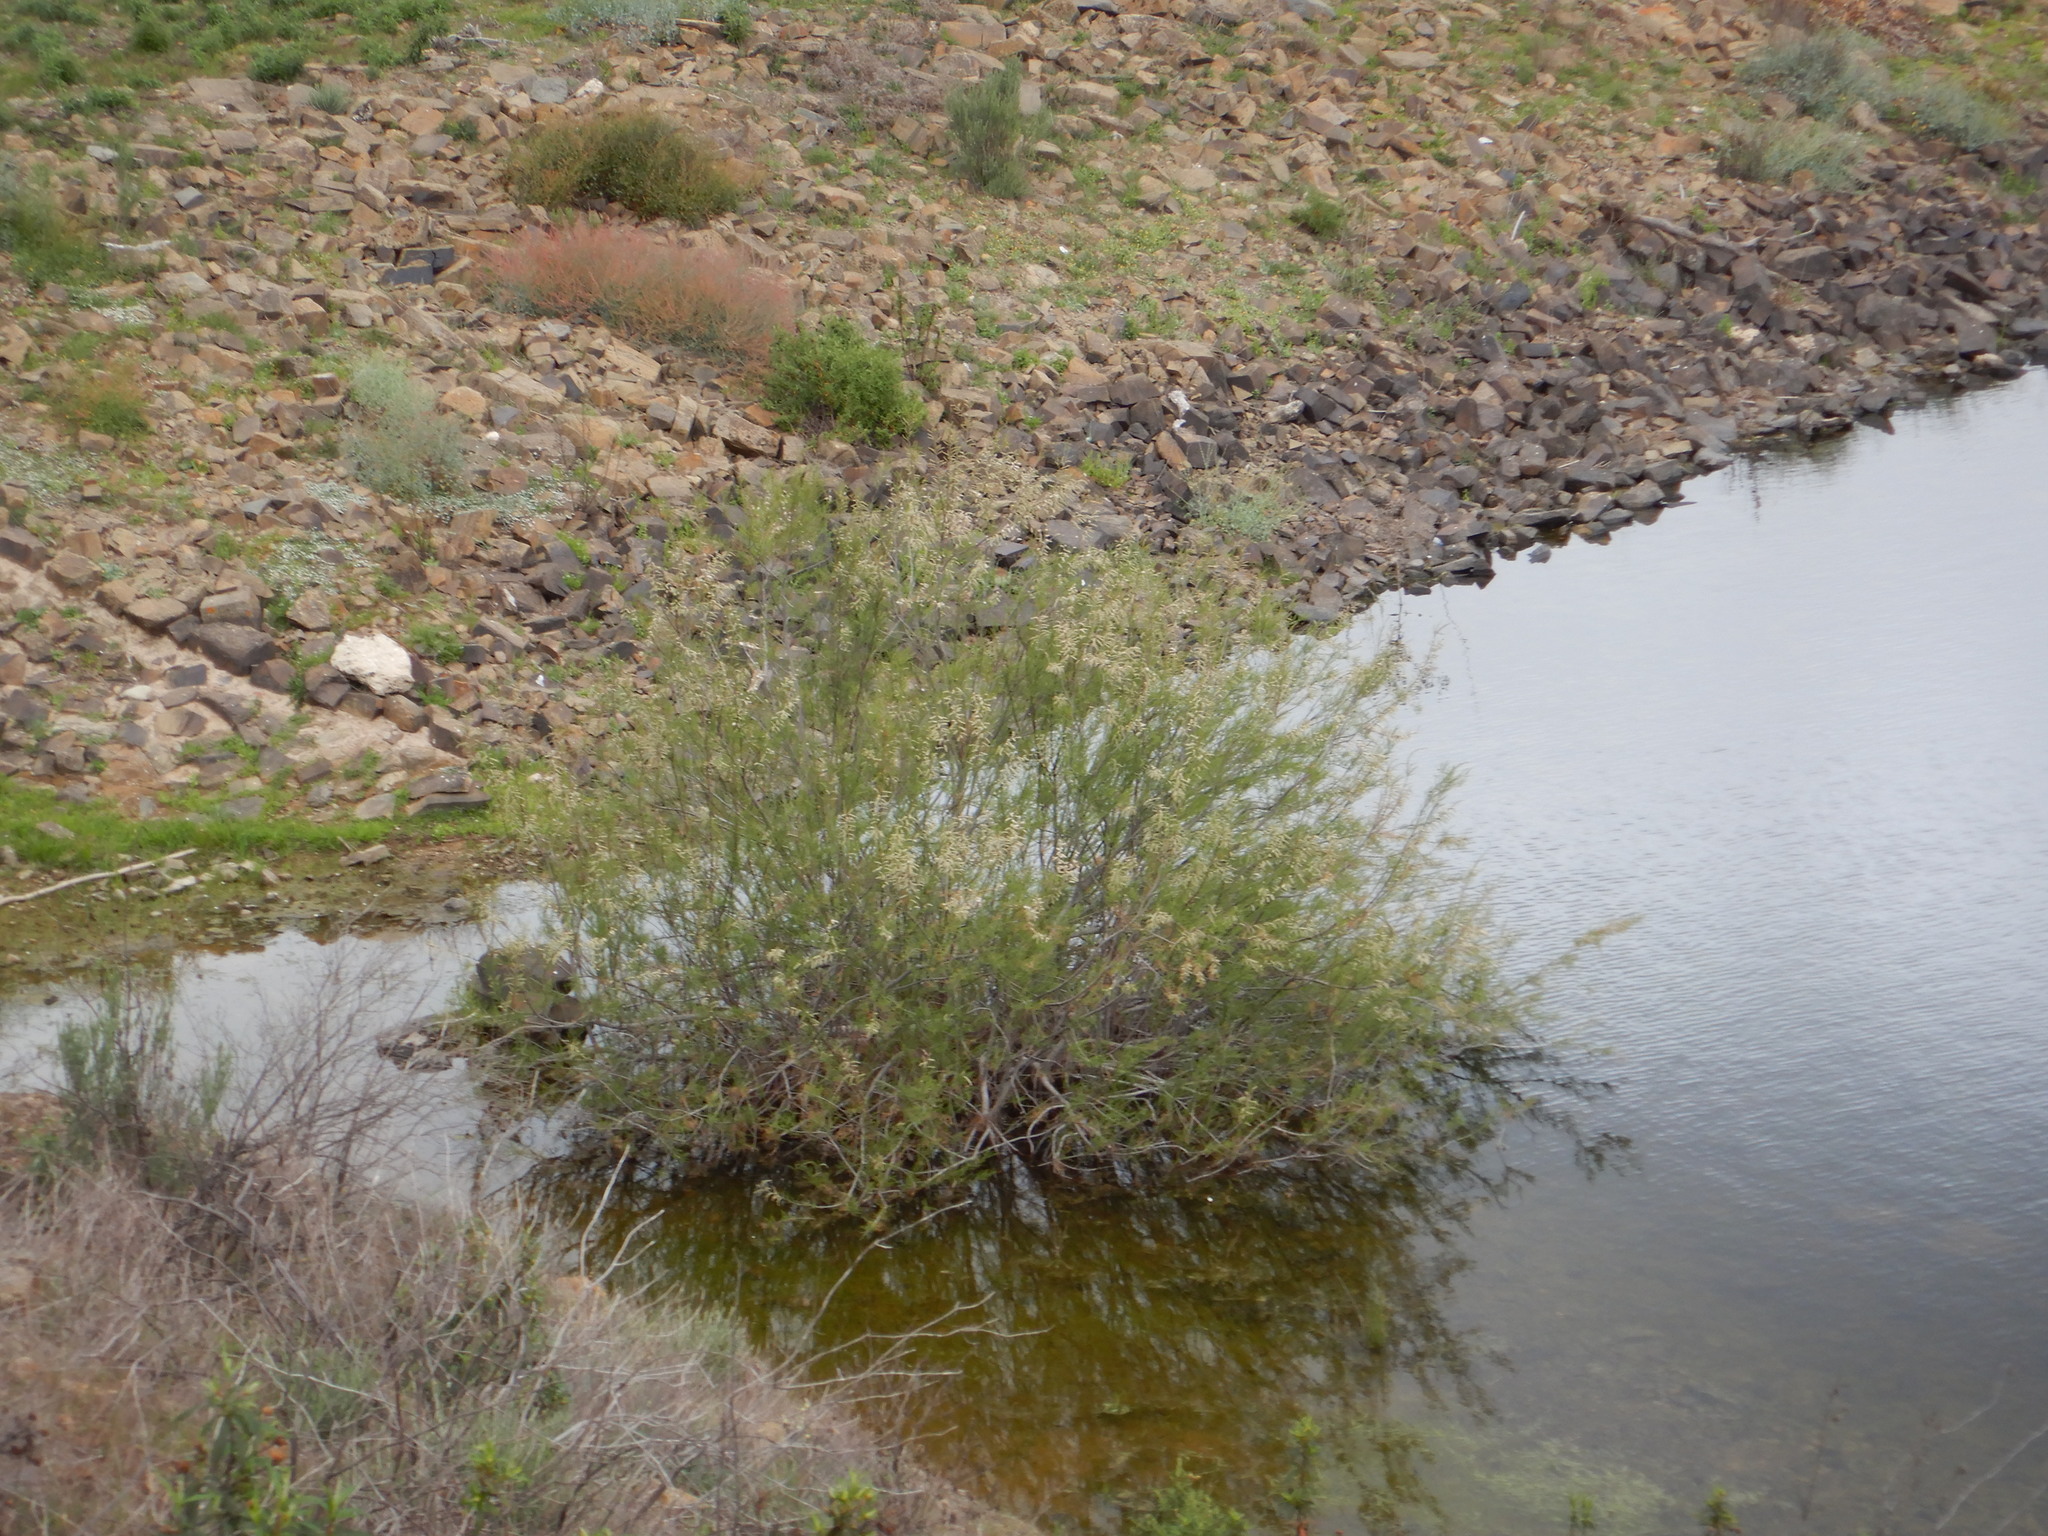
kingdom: Plantae
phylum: Tracheophyta
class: Magnoliopsida
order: Caryophyllales
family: Tamaricaceae
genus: Tamarix
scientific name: Tamarix
